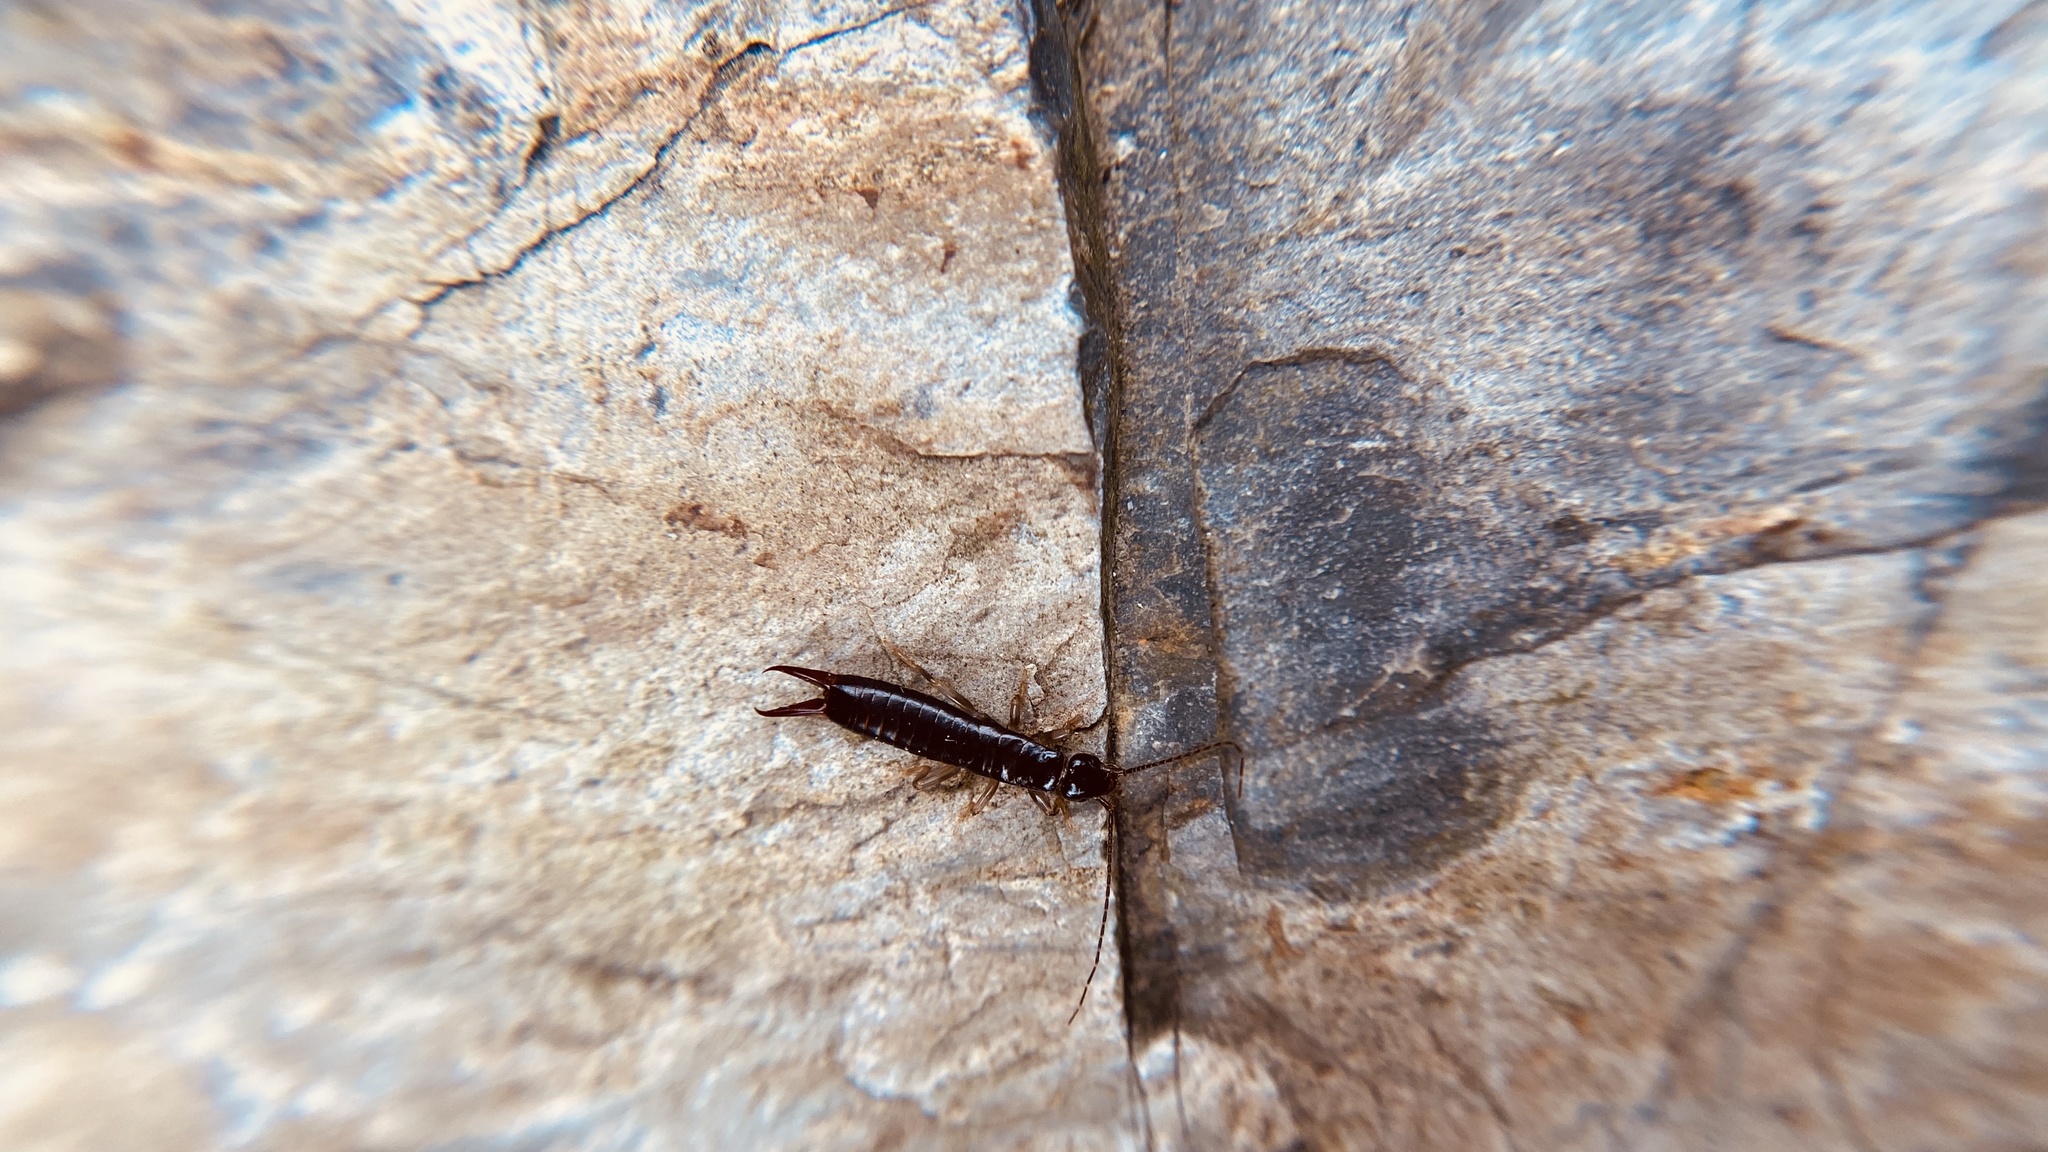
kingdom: Animalia
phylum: Arthropoda
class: Insecta
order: Dermaptera
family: Anisolabididae
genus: Anisolabis
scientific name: Anisolabis maritima
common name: Maritime earwig
